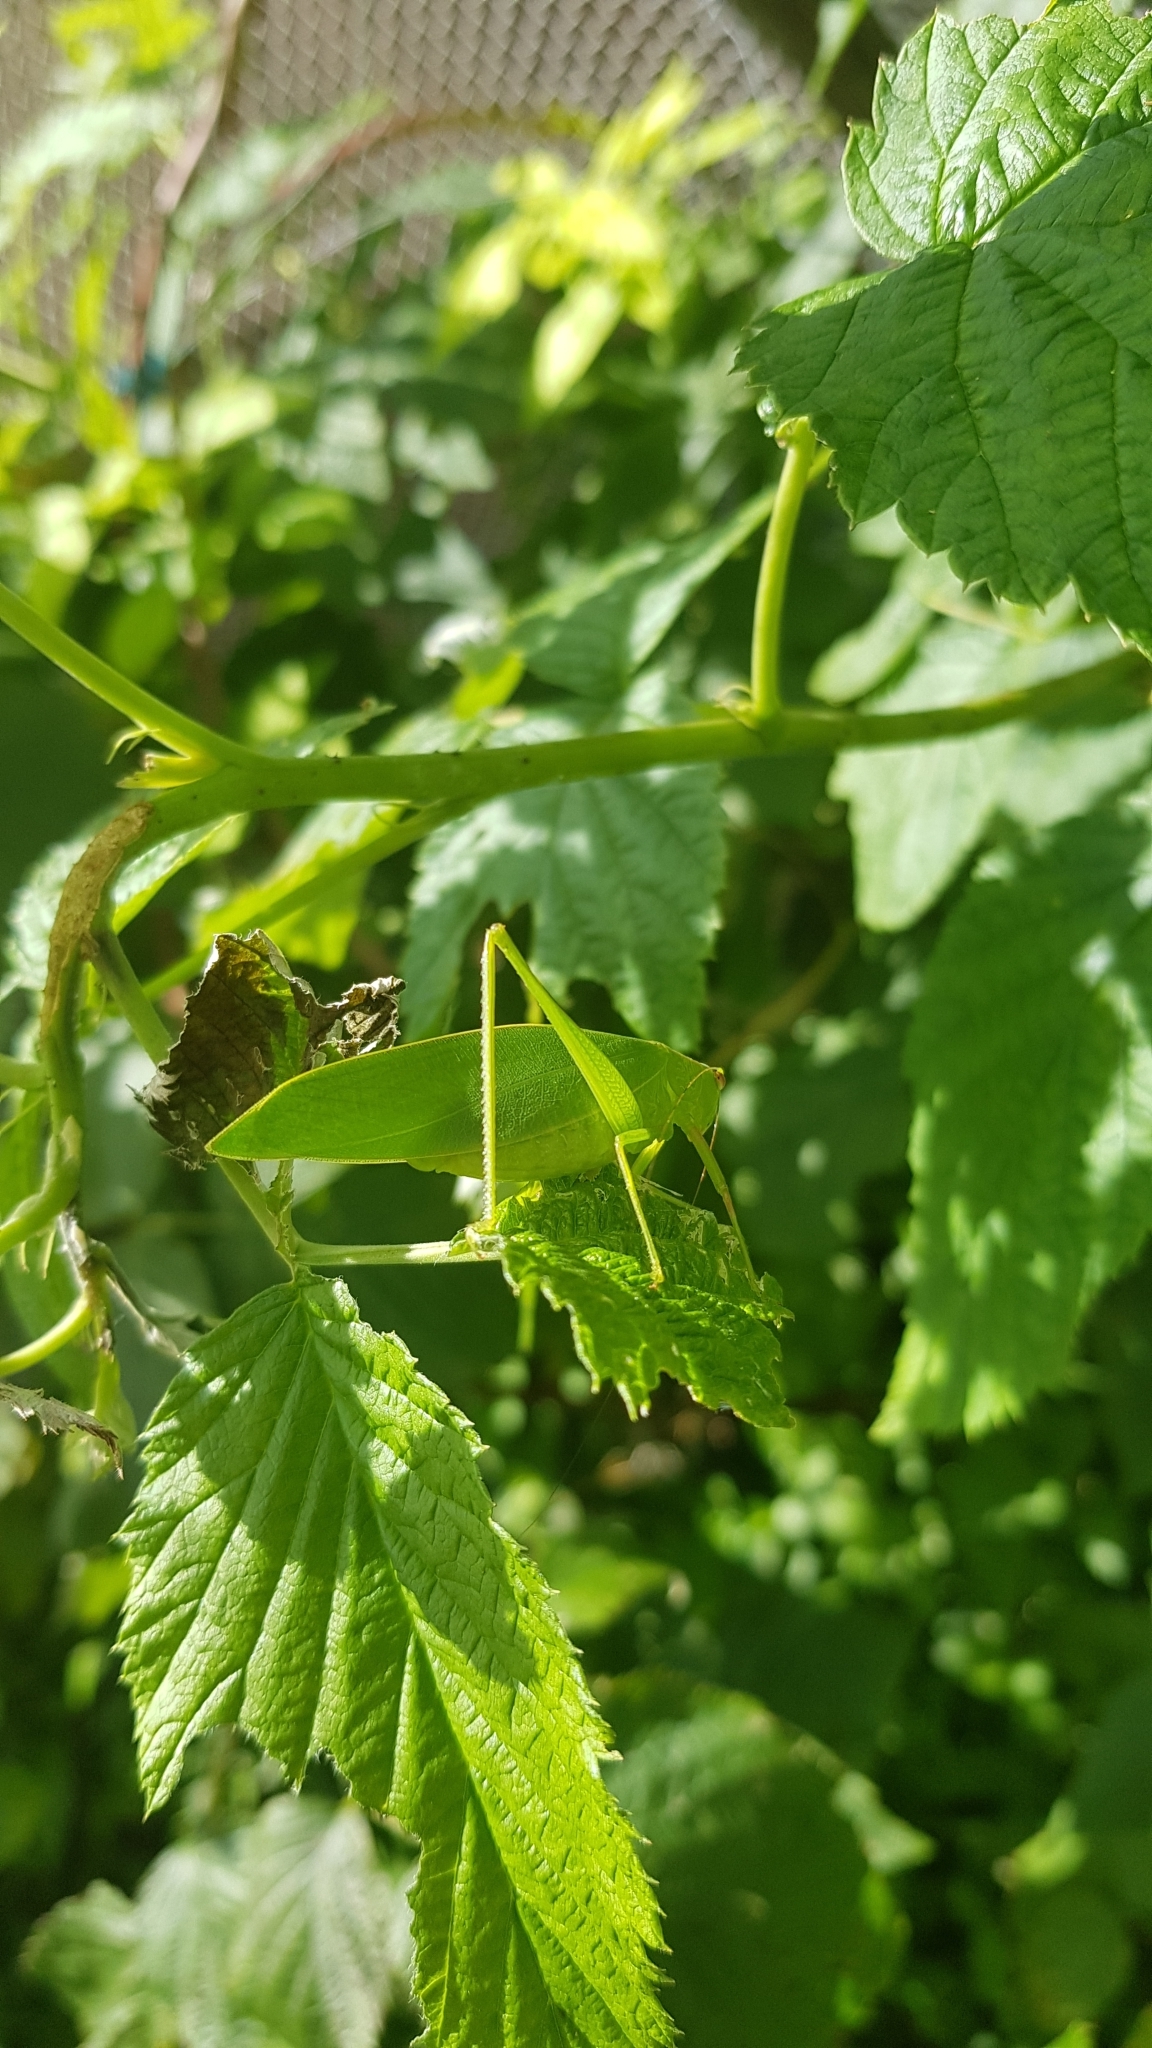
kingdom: Animalia
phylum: Arthropoda
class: Insecta
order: Orthoptera
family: Tettigoniidae
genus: Caedicia
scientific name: Caedicia simplex
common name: Common garden katydid
